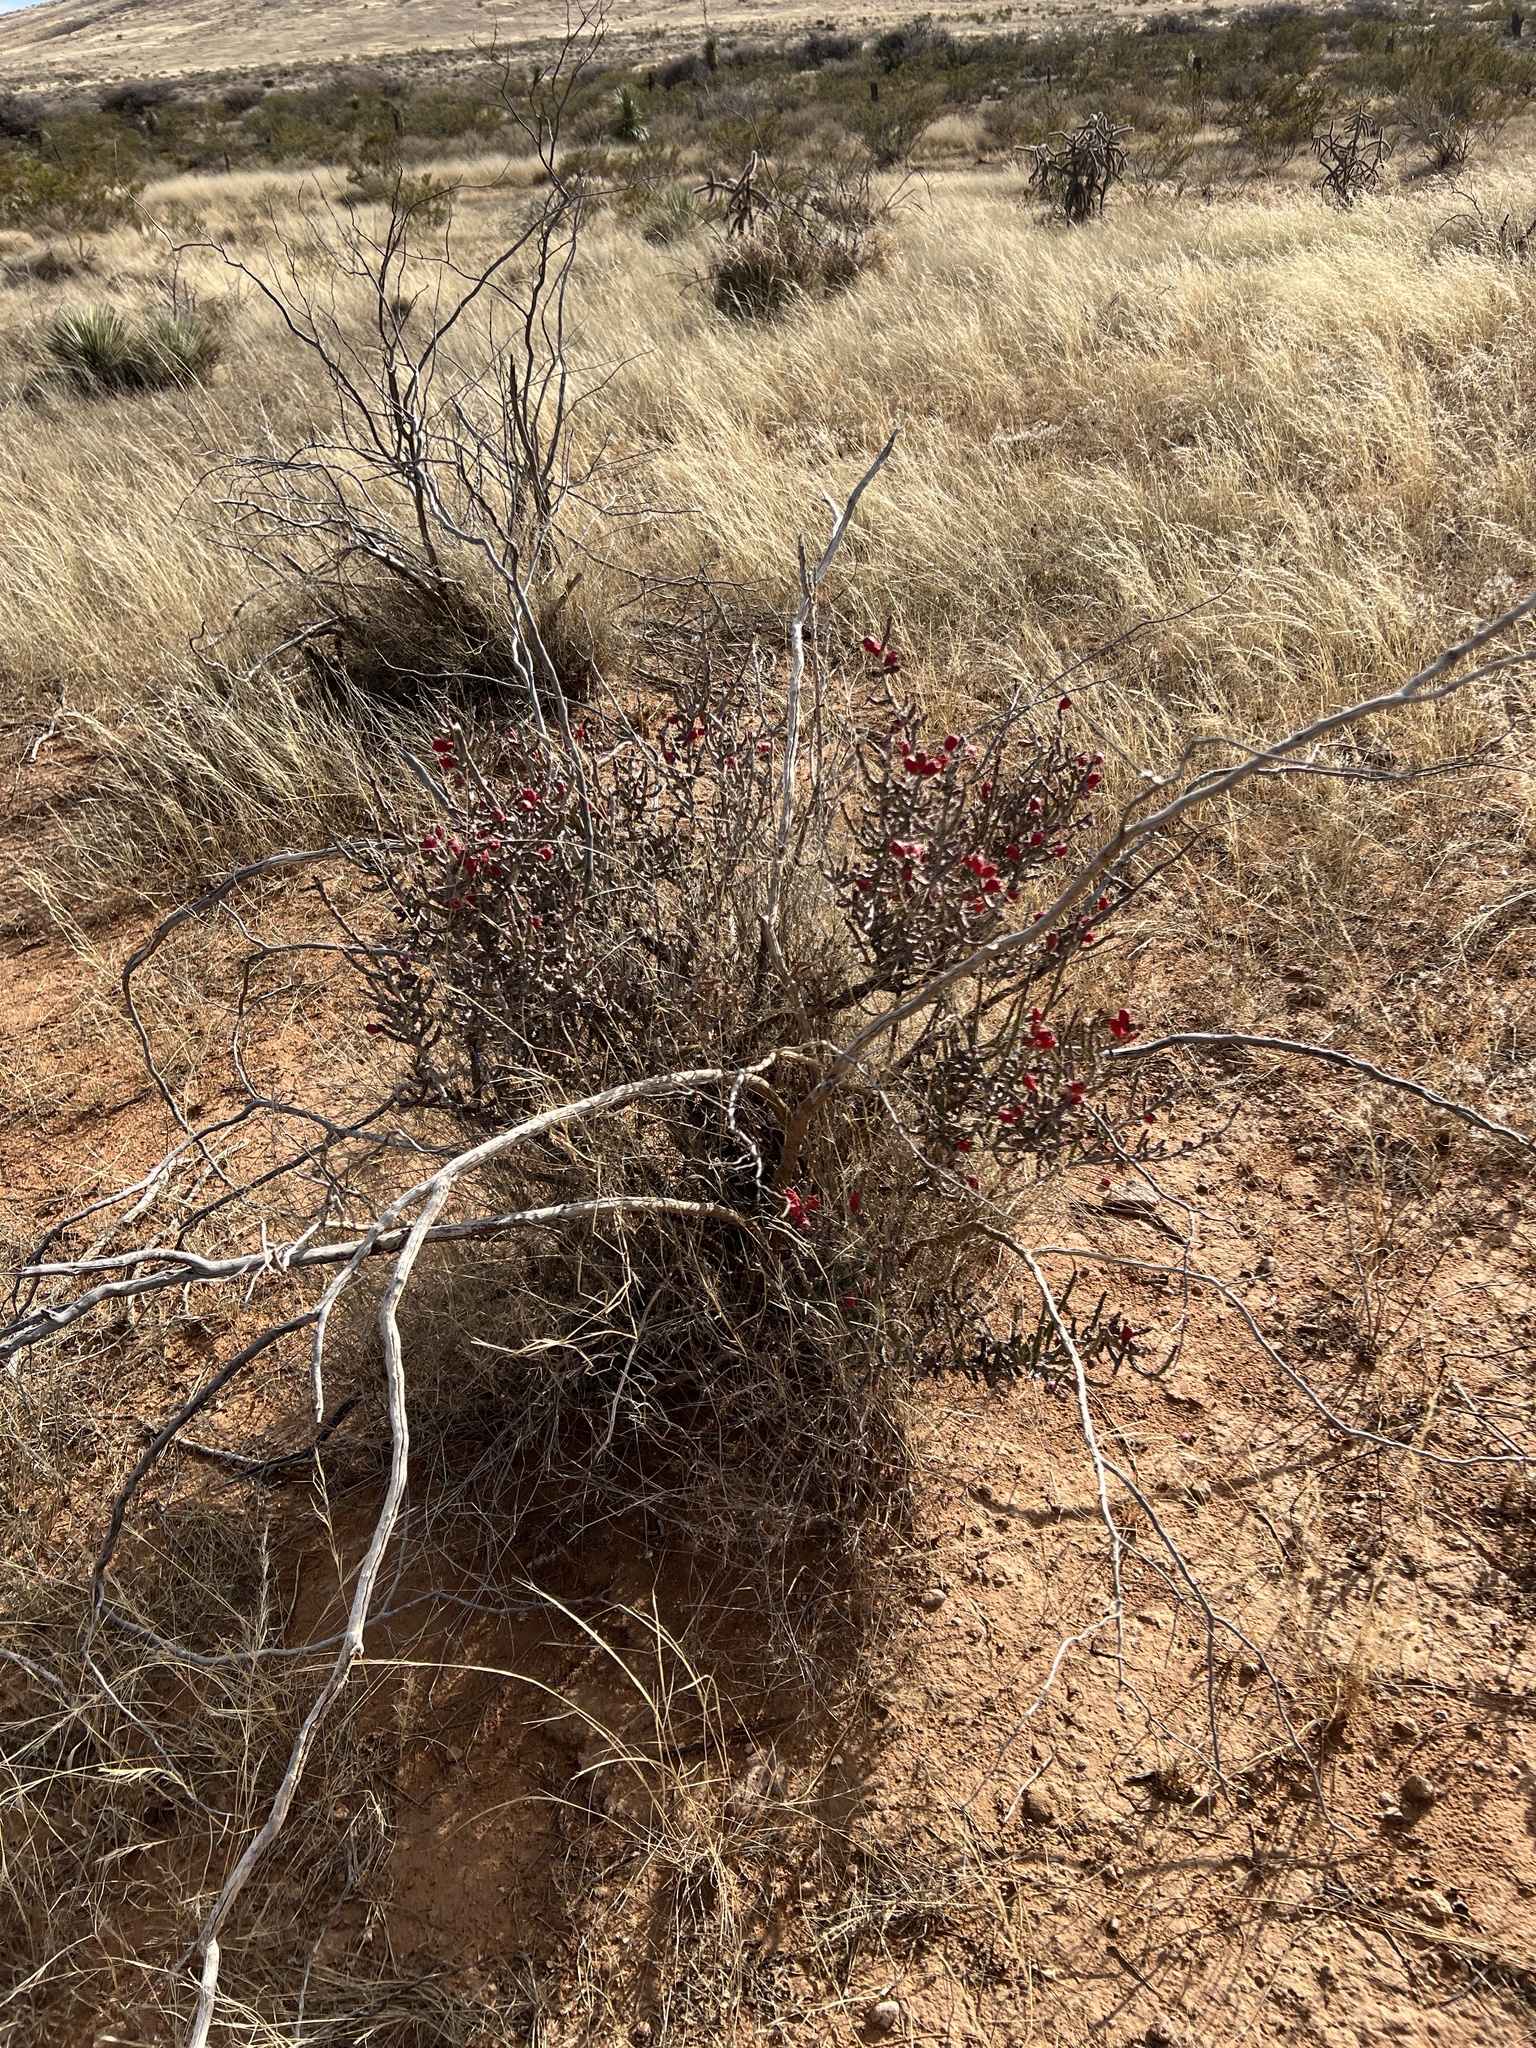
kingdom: Plantae
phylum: Tracheophyta
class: Magnoliopsida
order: Caryophyllales
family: Cactaceae
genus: Cylindropuntia
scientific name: Cylindropuntia leptocaulis
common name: Christmas cactus
